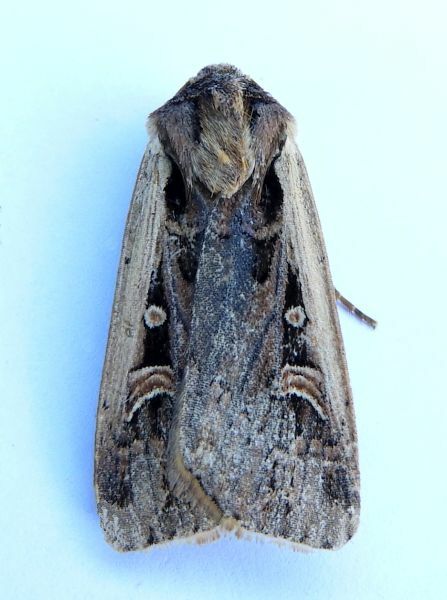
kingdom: Animalia
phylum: Arthropoda
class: Insecta
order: Lepidoptera
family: Noctuidae
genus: Striacosta
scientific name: Striacosta albicosta
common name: Western bean cutworm moth
